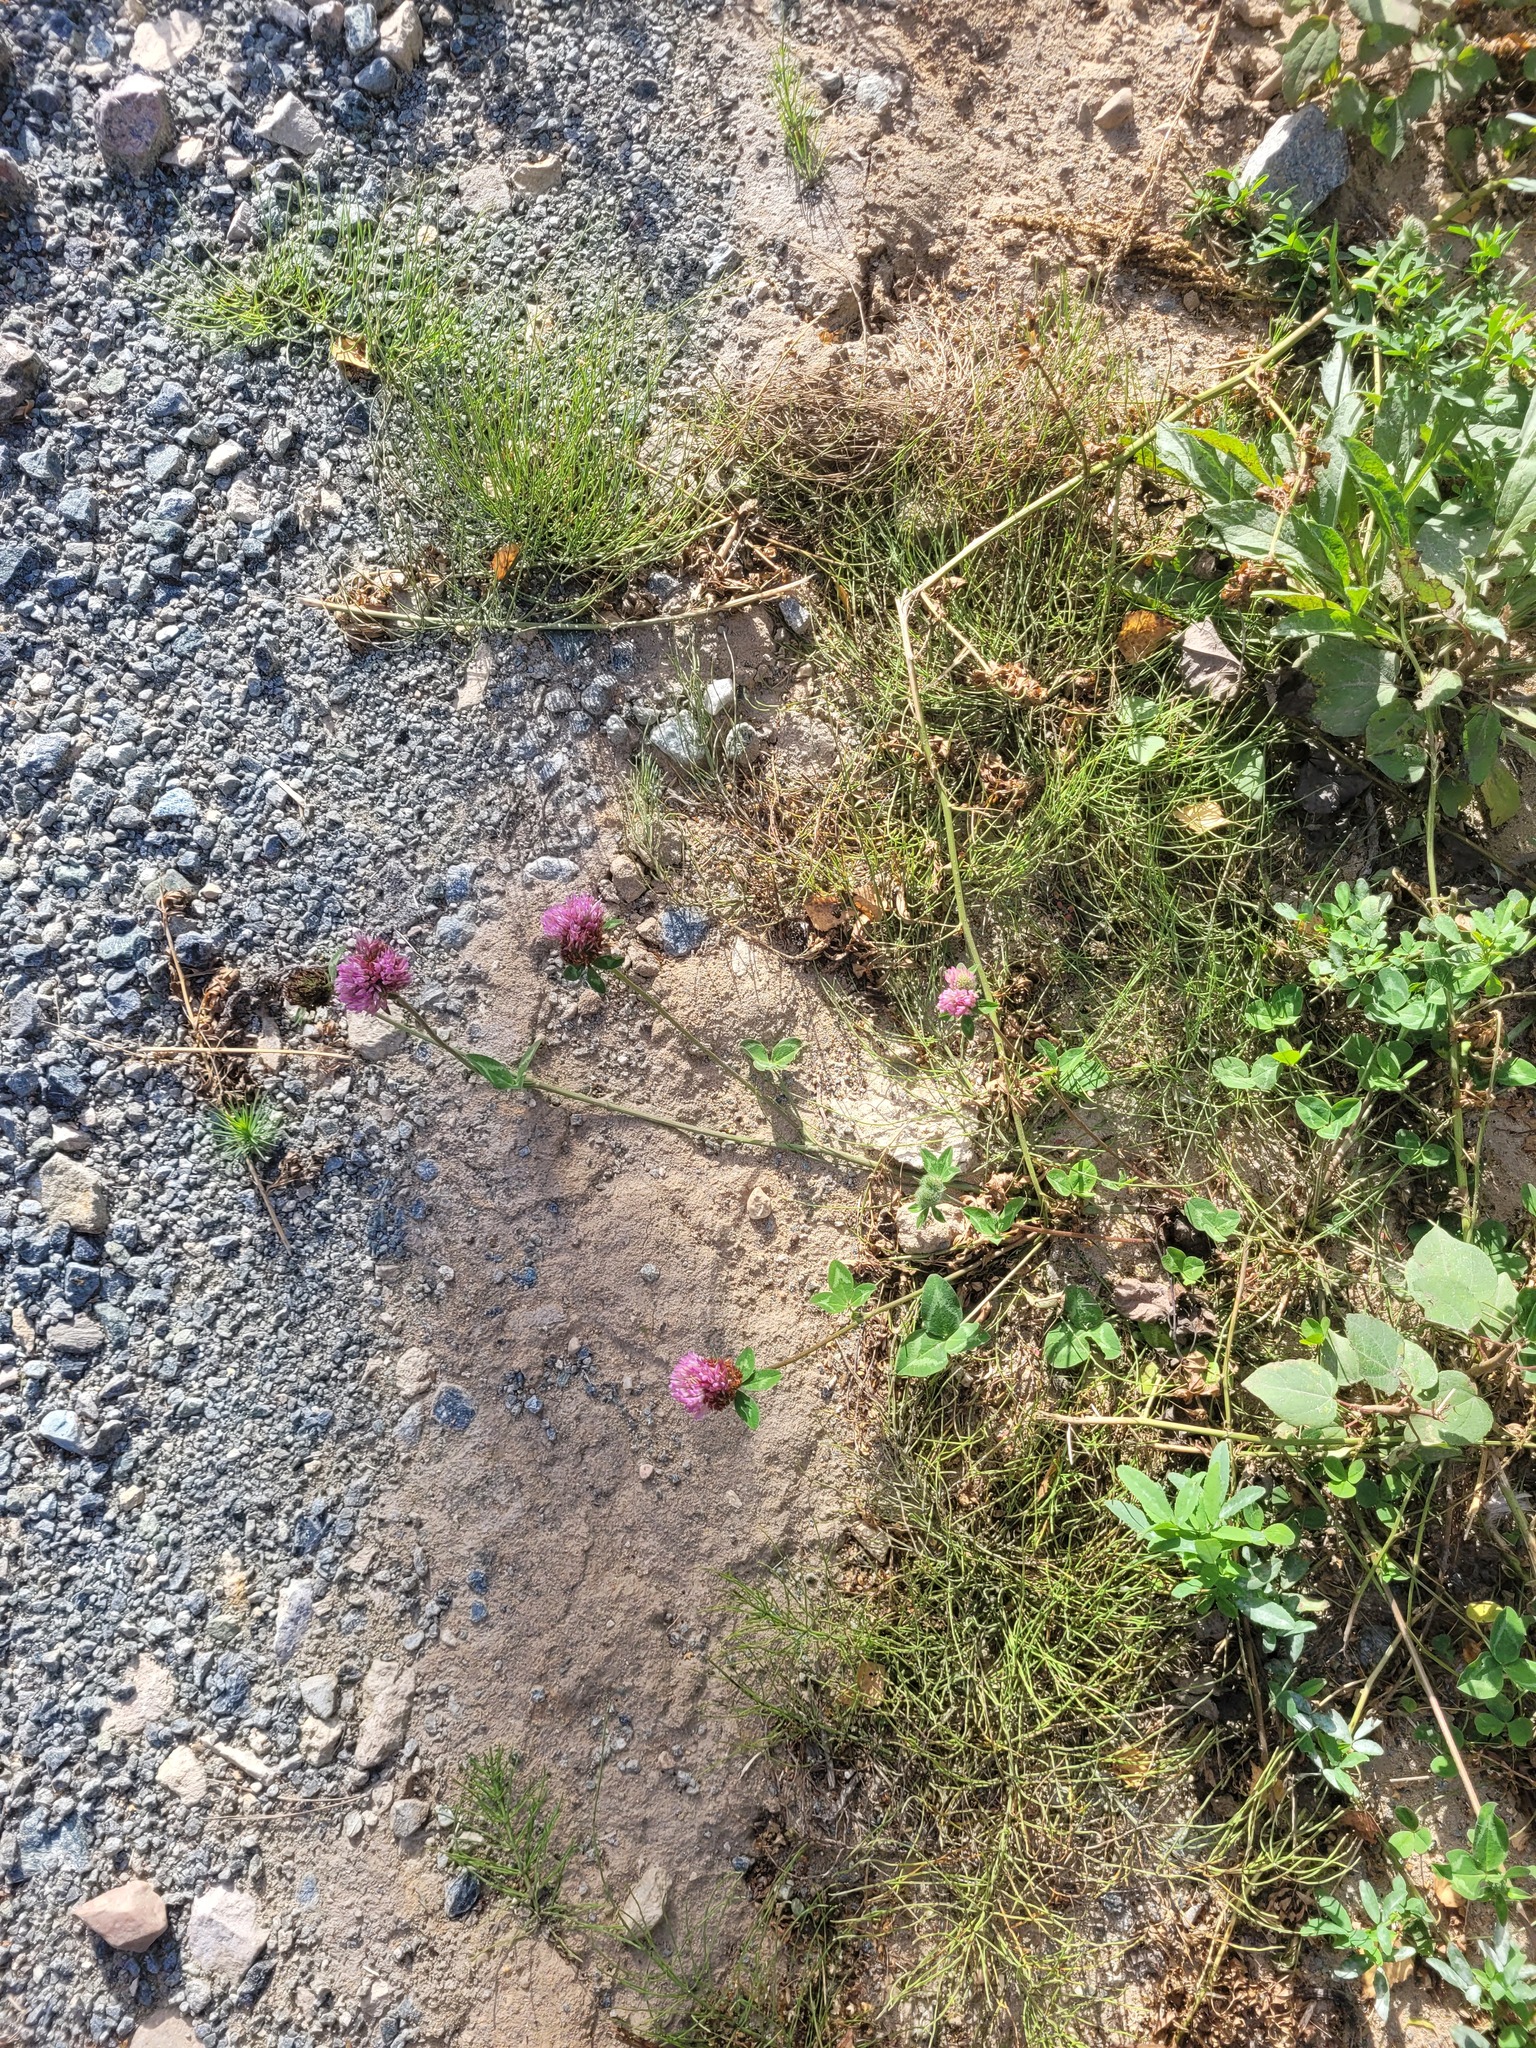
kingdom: Plantae
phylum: Tracheophyta
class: Magnoliopsida
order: Fabales
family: Fabaceae
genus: Trifolium
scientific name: Trifolium pratense
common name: Red clover
